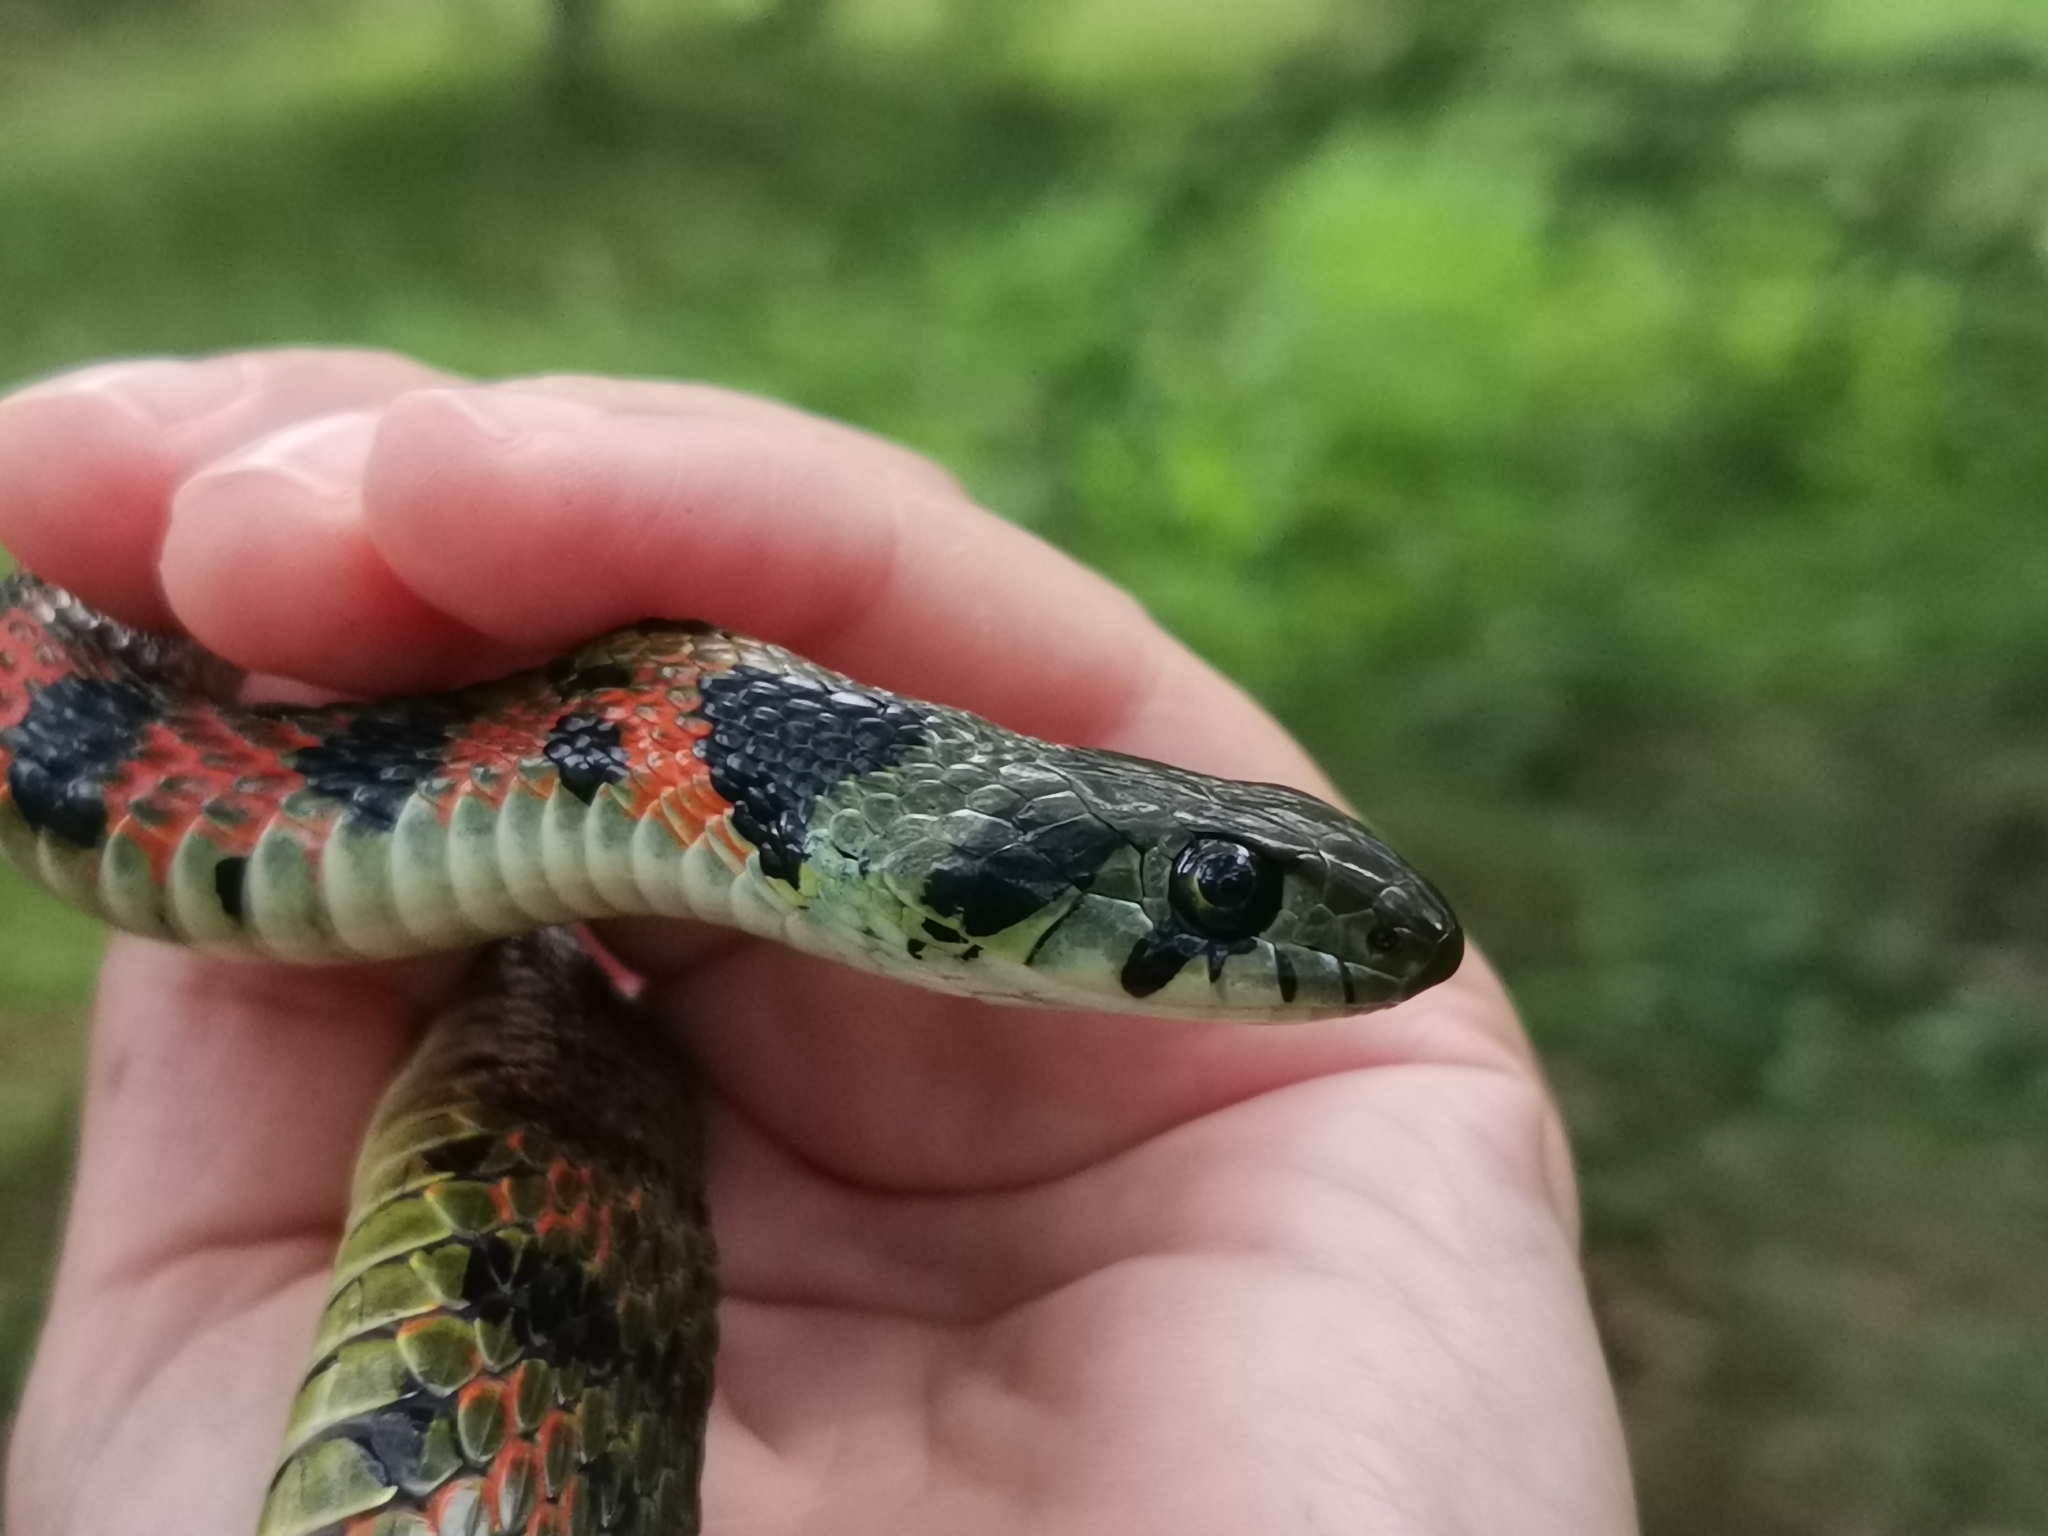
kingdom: Animalia
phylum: Chordata
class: Squamata
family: Colubridae
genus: Rhabdophis
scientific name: Rhabdophis tigrinus
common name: Tiger keelback
